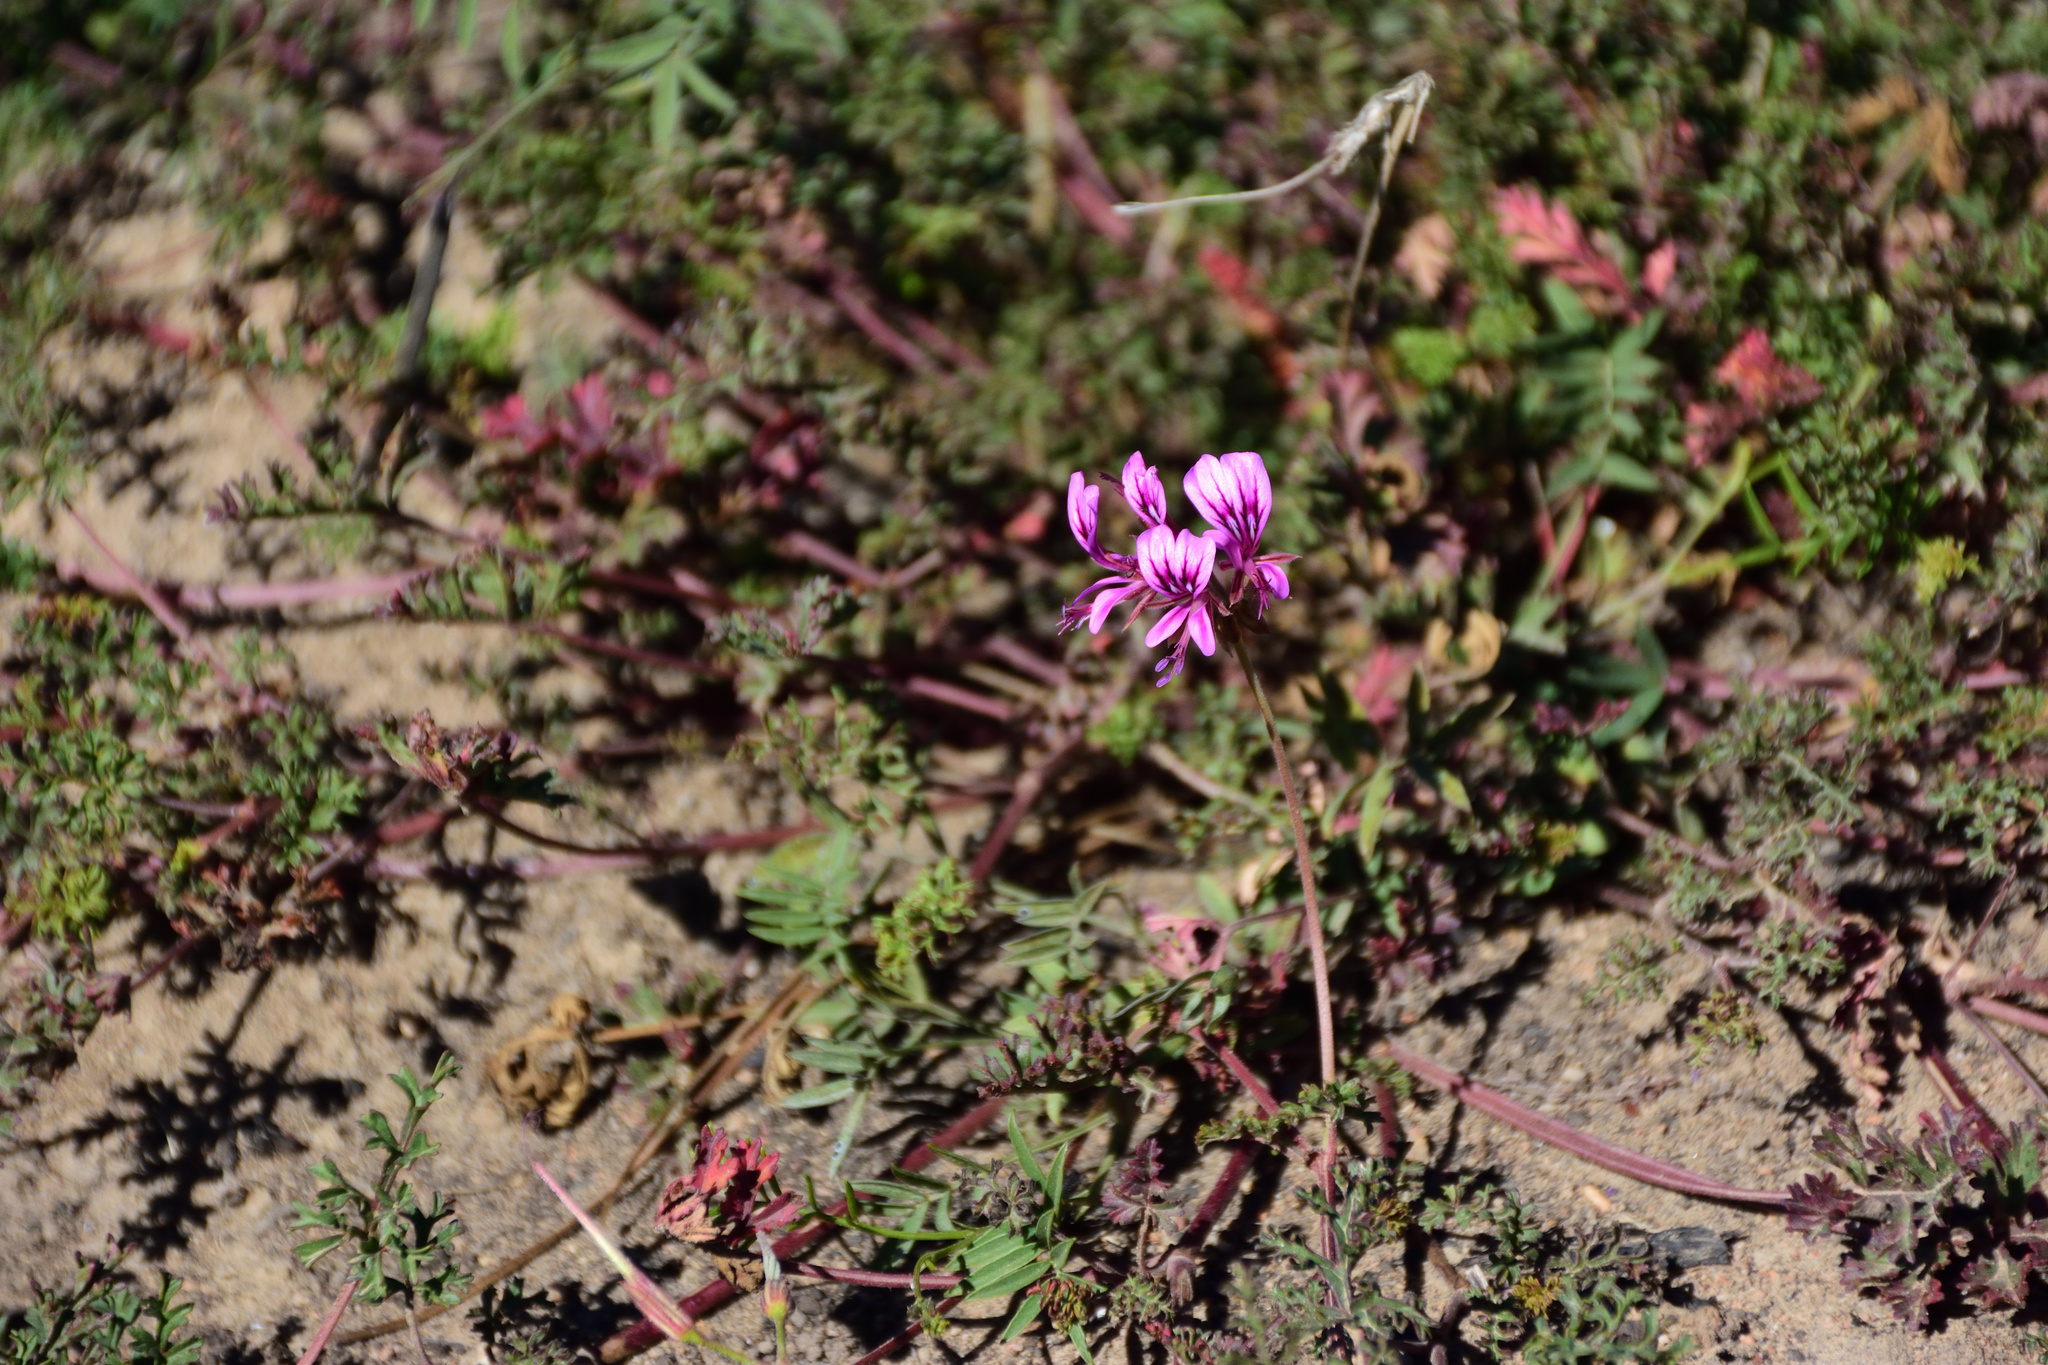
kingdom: Plantae
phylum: Tracheophyta
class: Magnoliopsida
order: Geraniales
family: Geraniaceae
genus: Pelargonium
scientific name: Pelargonium myrrhifolium
